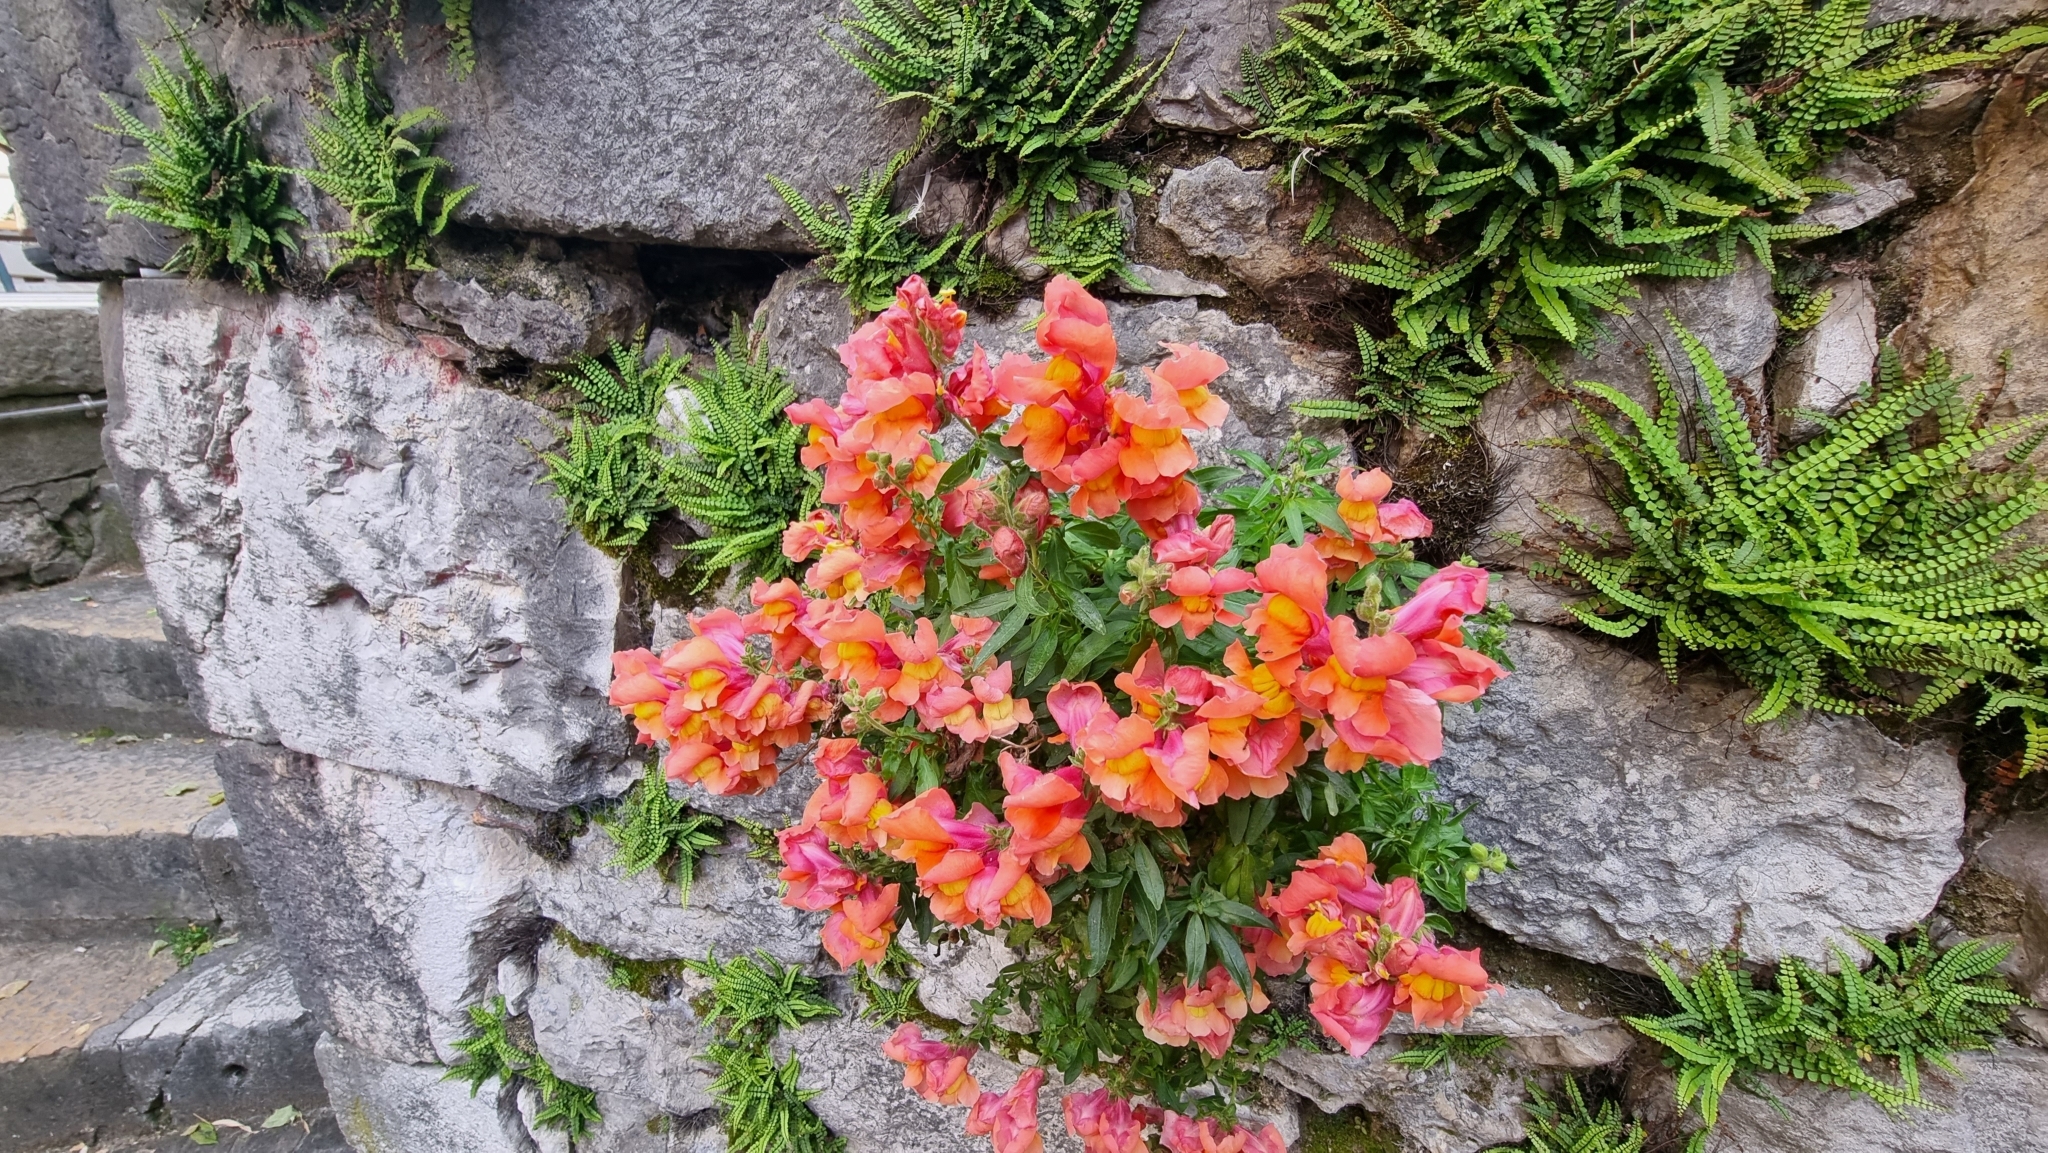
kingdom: Plantae
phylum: Tracheophyta
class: Magnoliopsida
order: Lamiales
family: Plantaginaceae
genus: Antirrhinum
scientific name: Antirrhinum majus
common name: Snapdragon
